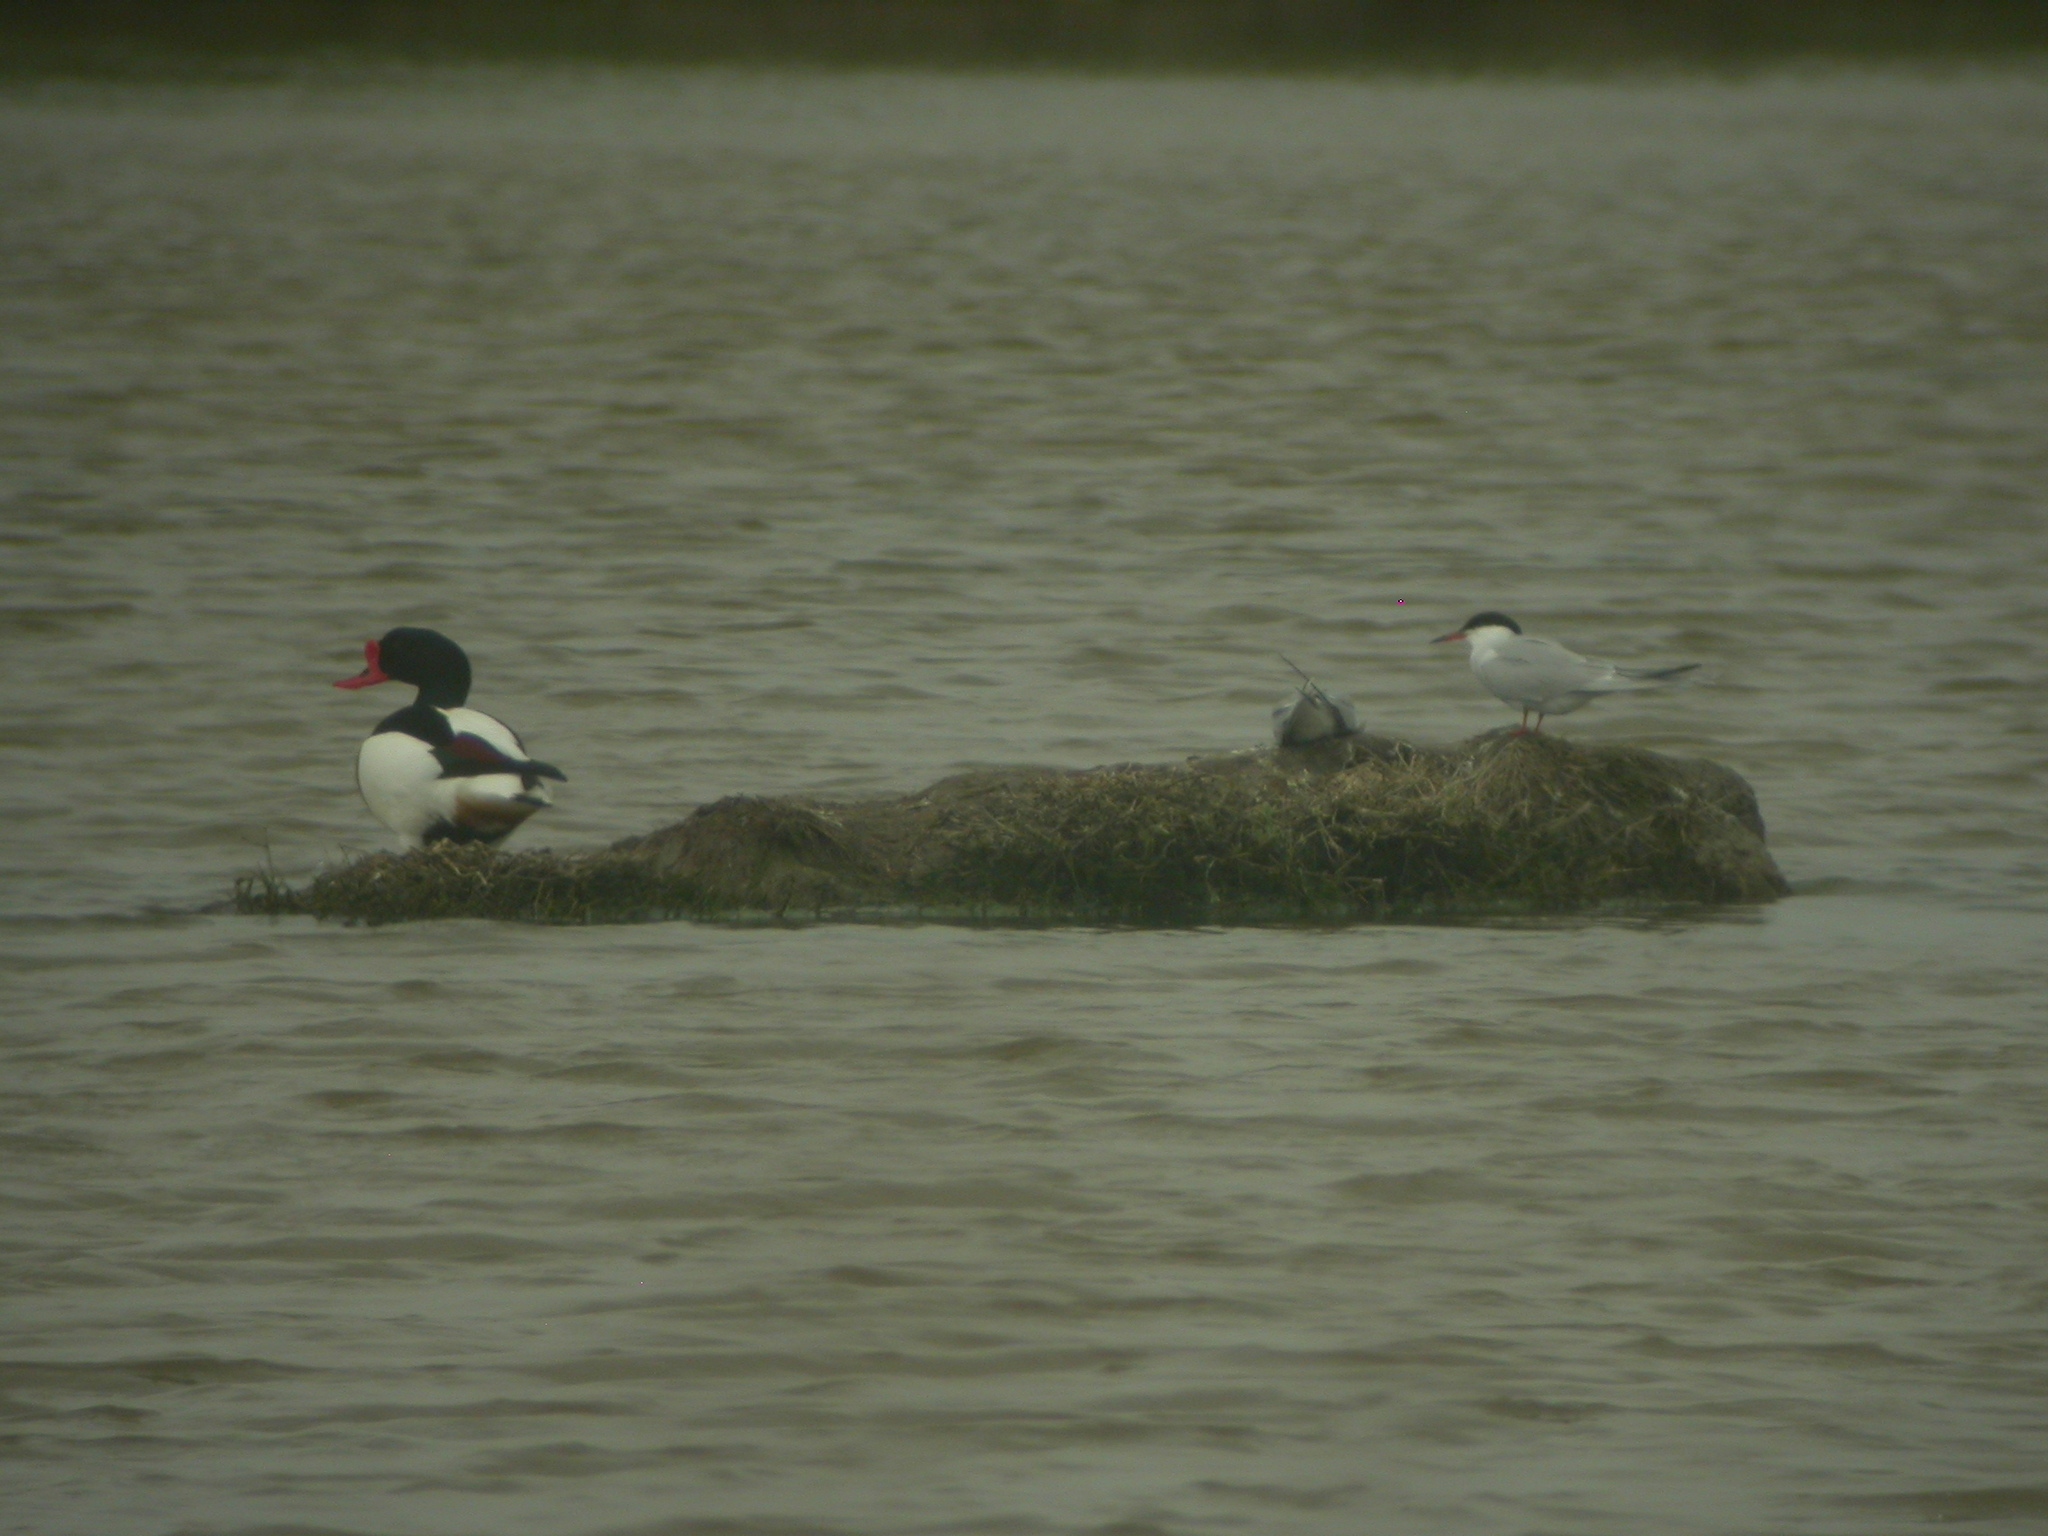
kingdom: Animalia
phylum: Chordata
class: Aves
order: Anseriformes
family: Anatidae
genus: Tadorna
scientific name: Tadorna tadorna
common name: Common shelduck
